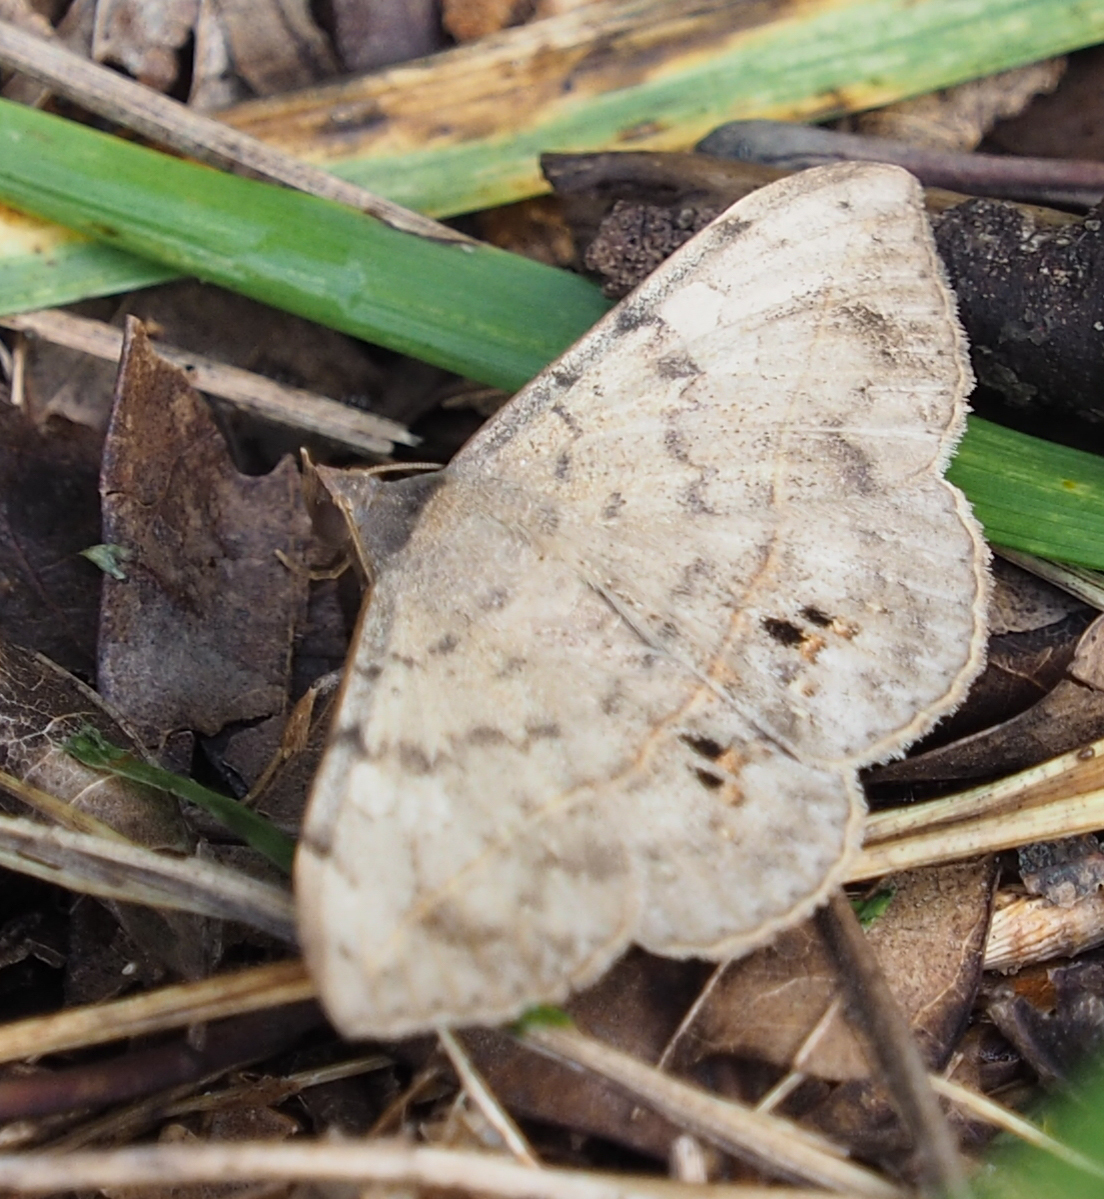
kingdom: Animalia
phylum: Arthropoda
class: Insecta
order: Lepidoptera
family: Erebidae
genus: Anticarsia
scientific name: Anticarsia gemmatalis
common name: Cutworm moth
